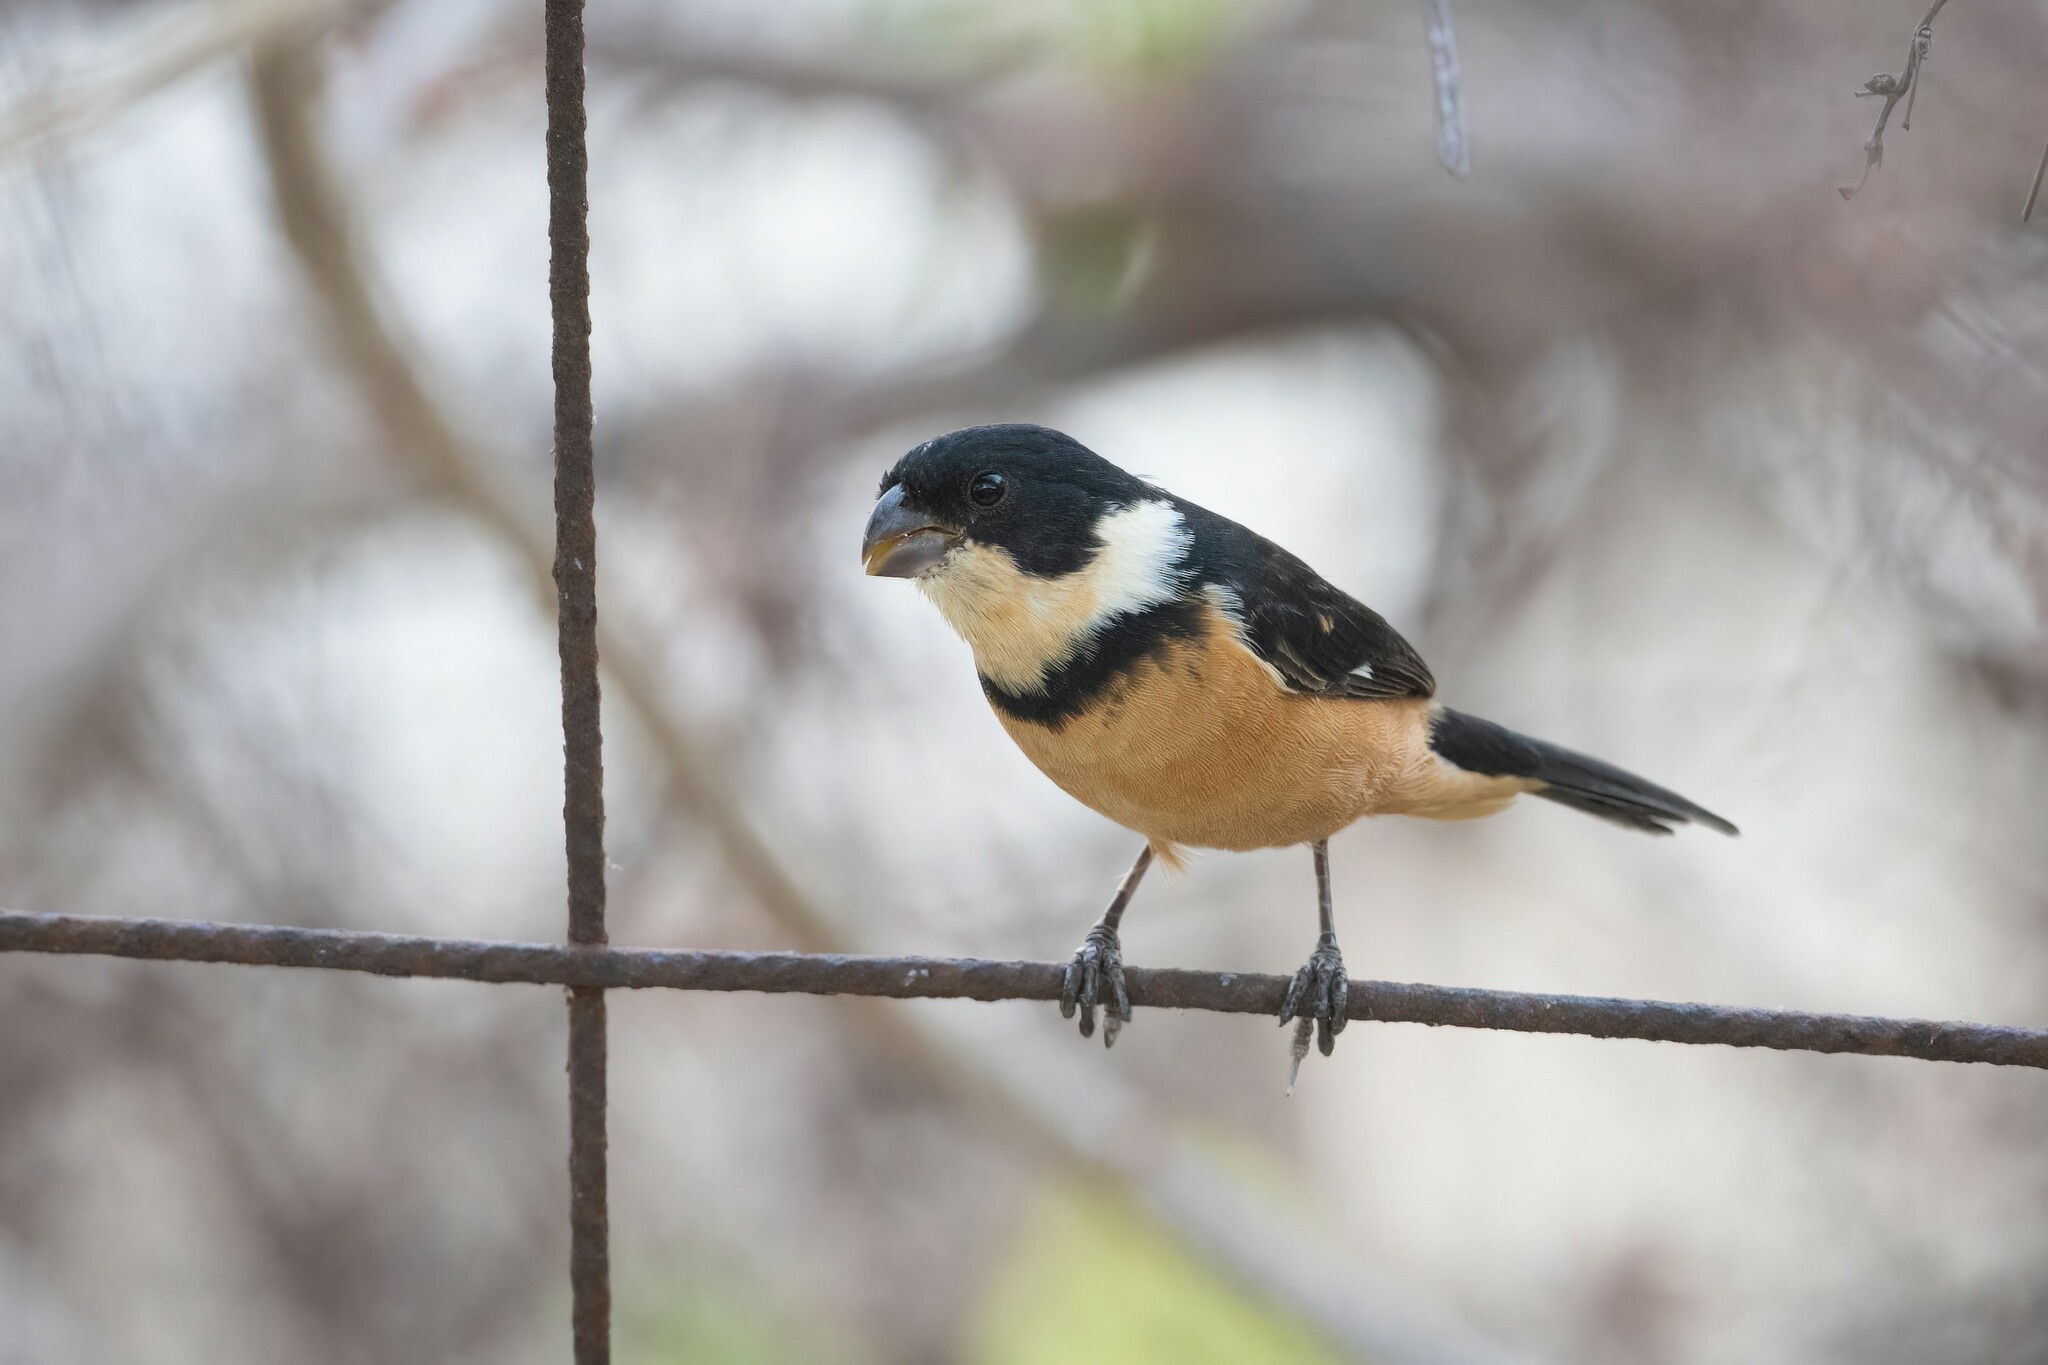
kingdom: Animalia
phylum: Chordata
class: Aves
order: Passeriformes
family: Thraupidae
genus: Sporophila
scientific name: Sporophila torqueola
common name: White-collared seedeater
